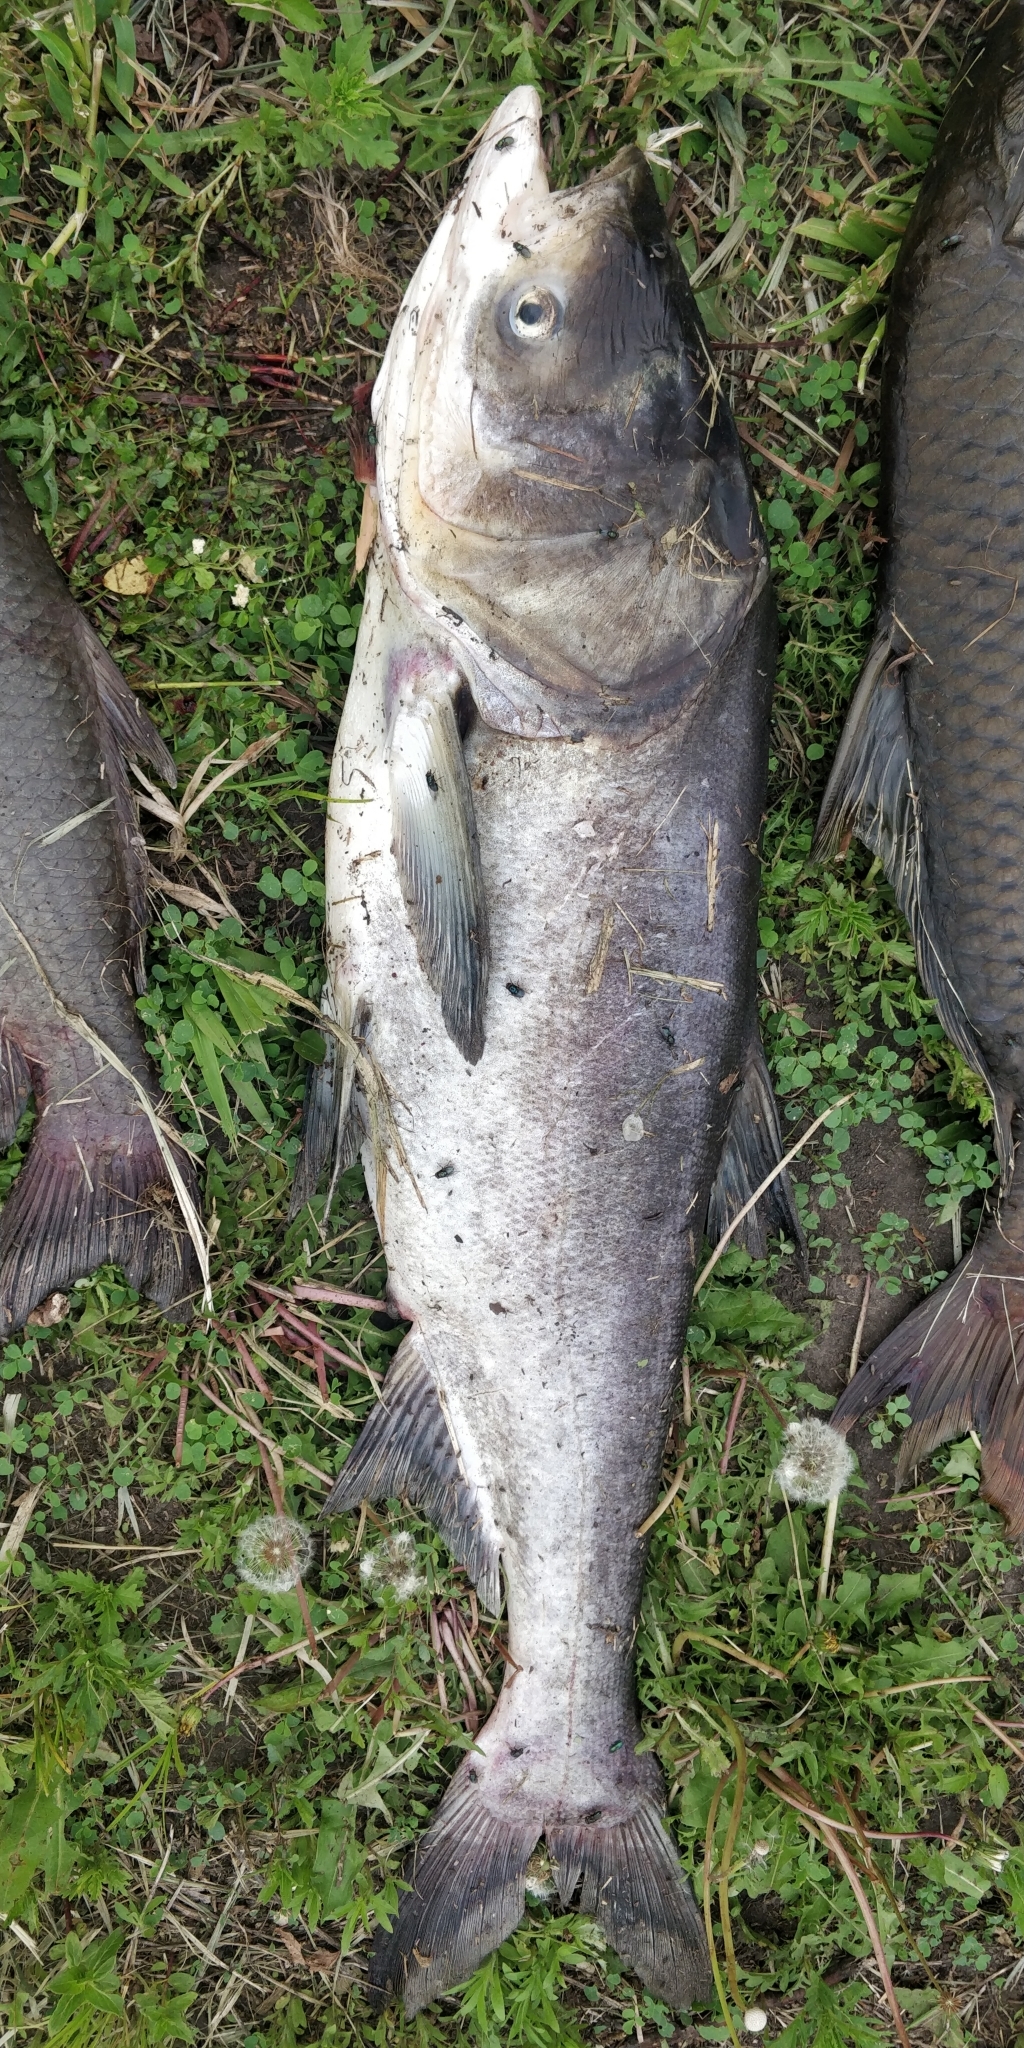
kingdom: Animalia
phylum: Chordata
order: Cypriniformes
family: Cyprinidae
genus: Hypophthalmichthys
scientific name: Hypophthalmichthys nobilis
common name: Bighead carp
